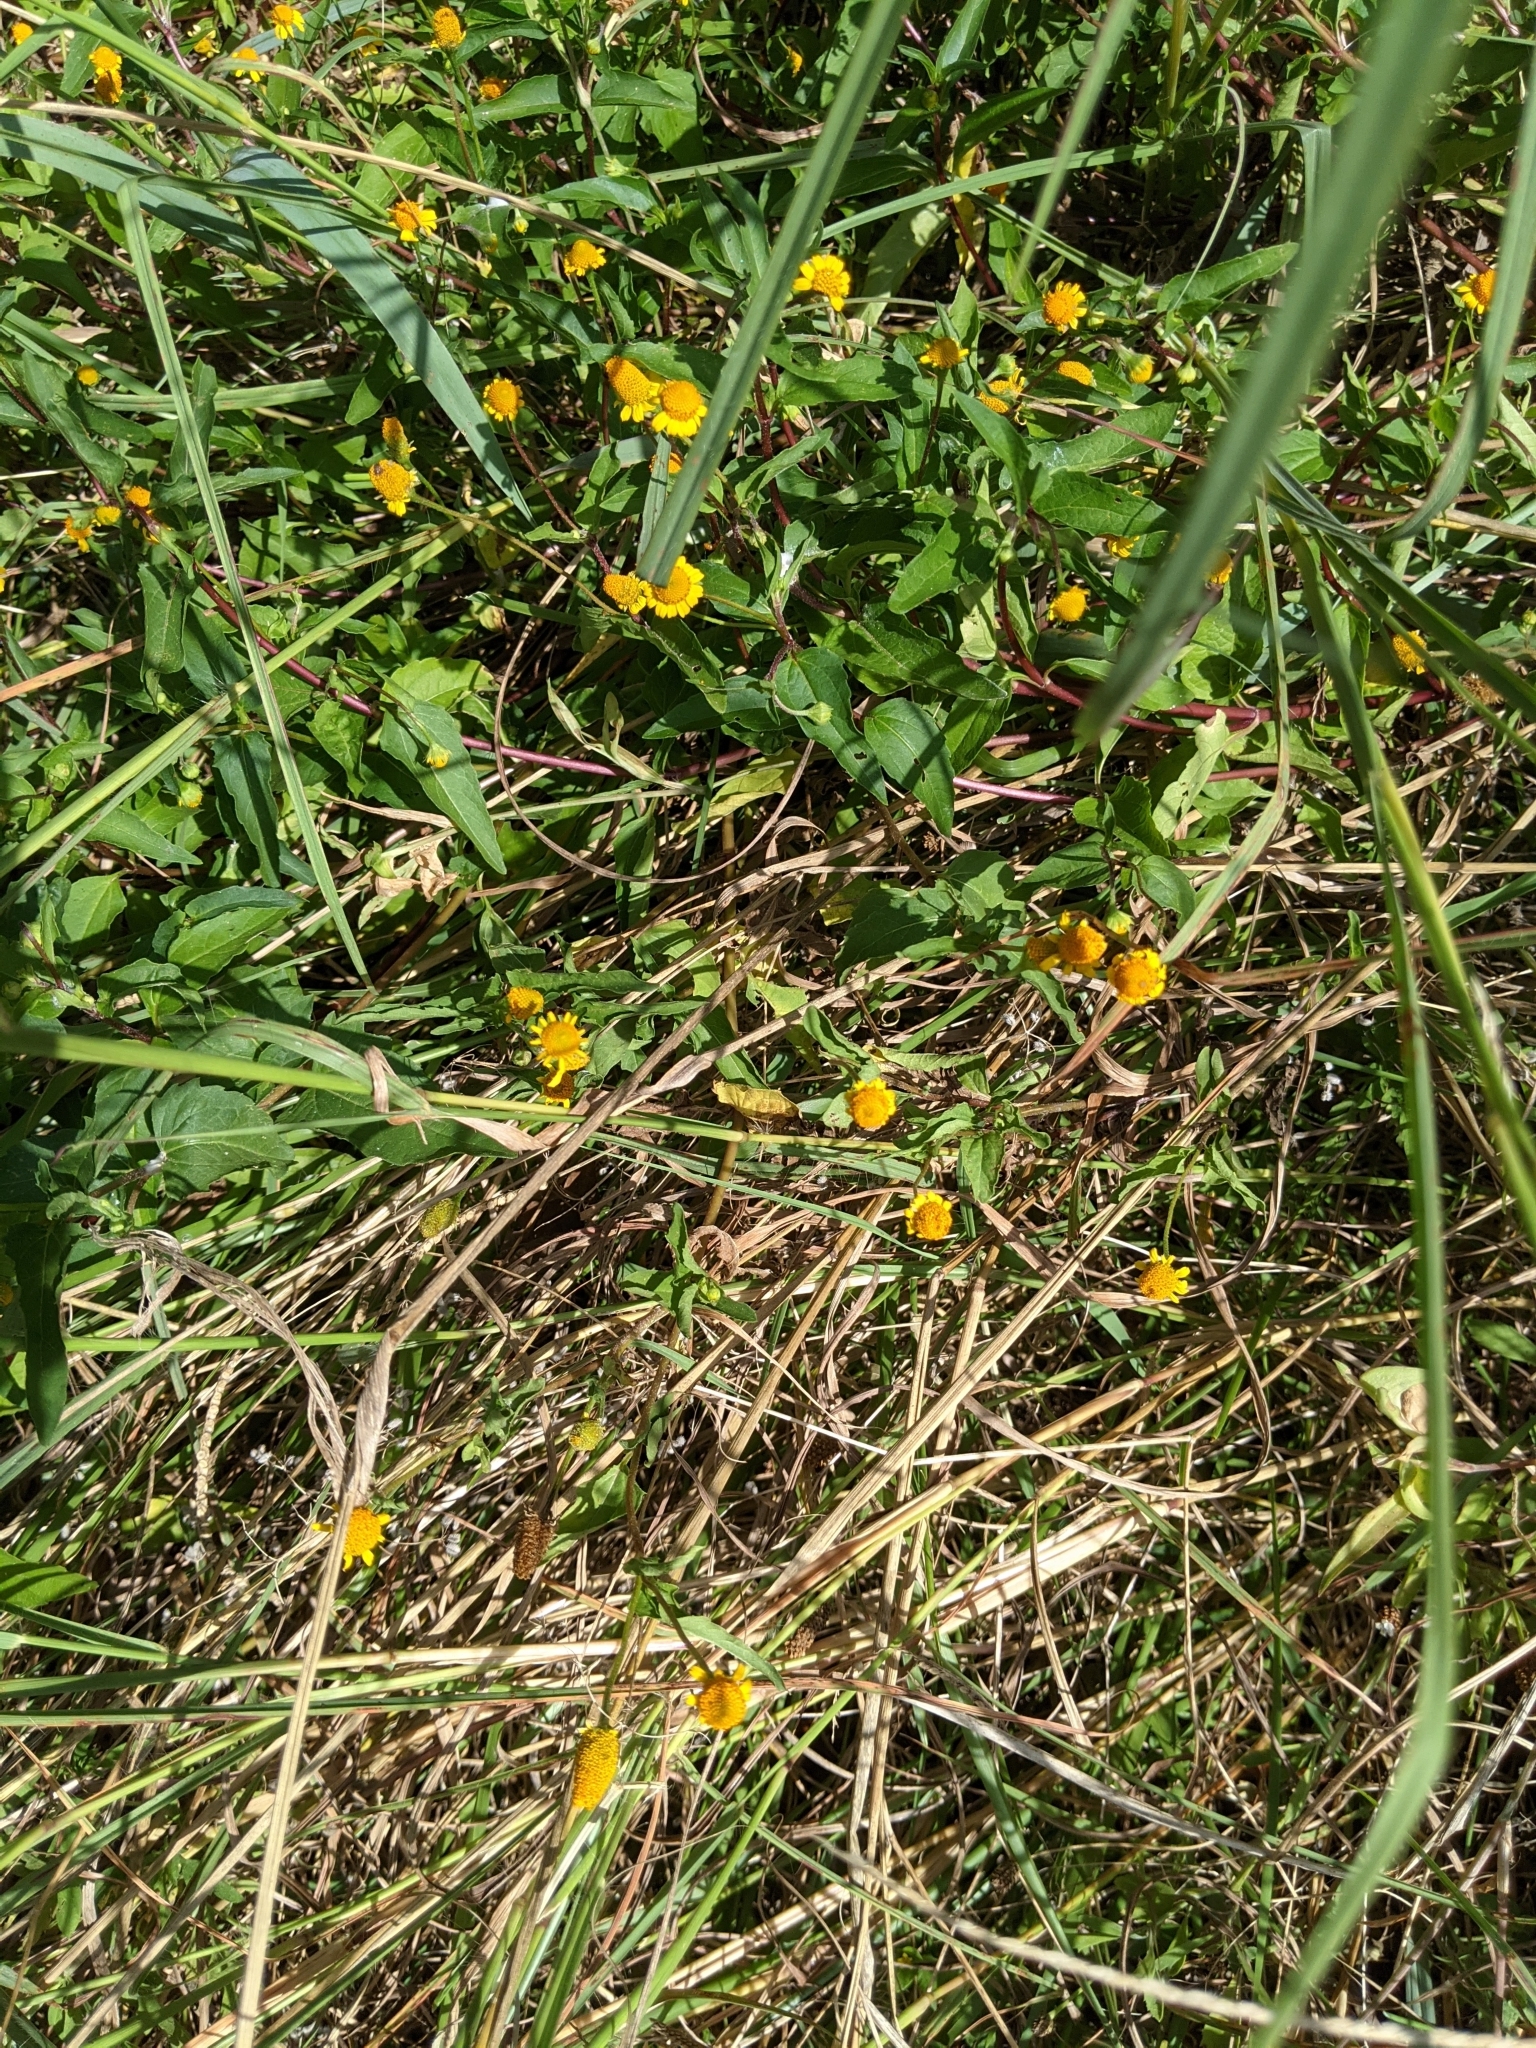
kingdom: Plantae
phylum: Tracheophyta
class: Magnoliopsida
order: Asterales
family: Asteraceae
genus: Acmella
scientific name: Acmella repens
